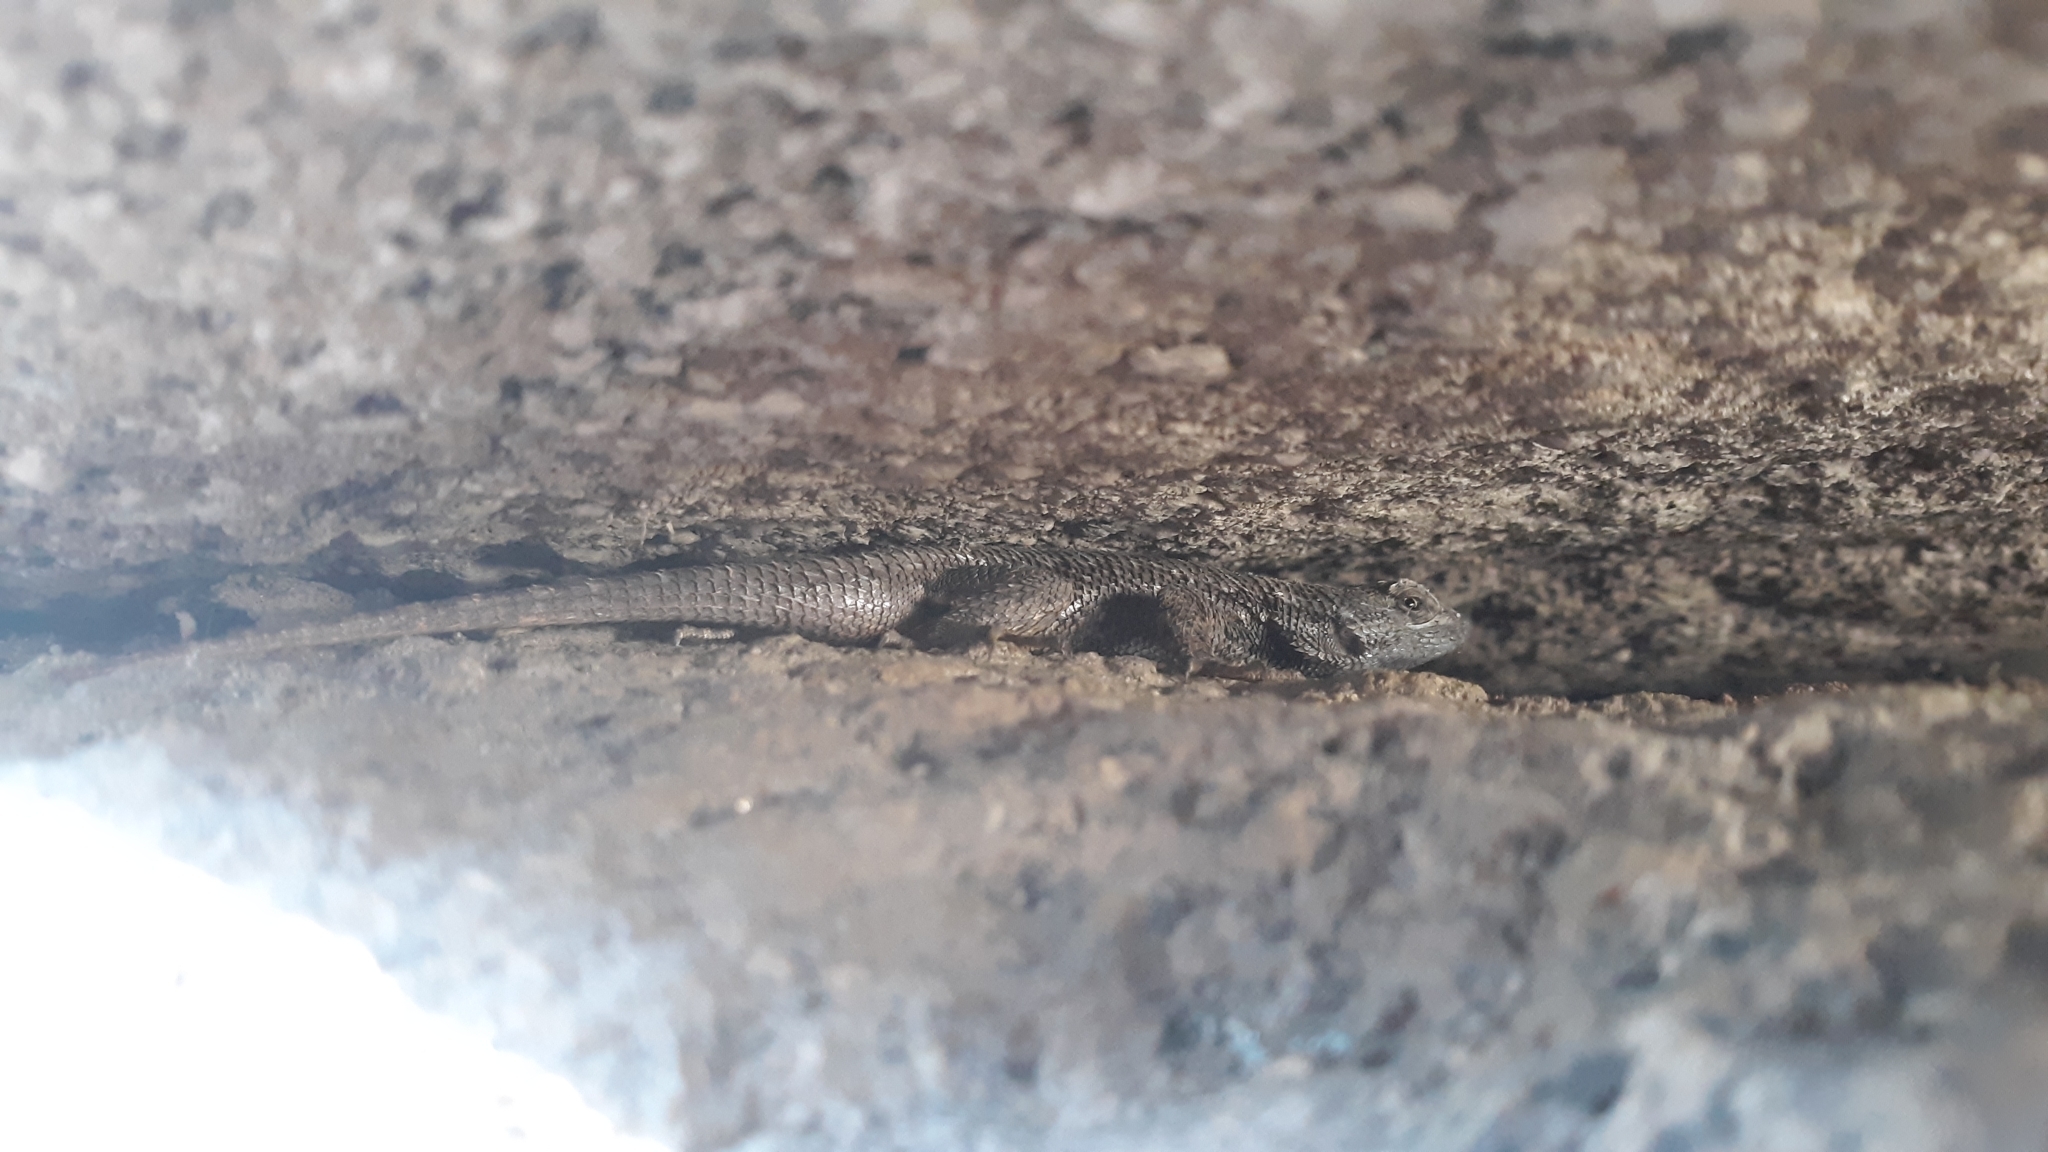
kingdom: Animalia
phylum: Chordata
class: Squamata
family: Phrynosomatidae
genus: Sceloporus
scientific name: Sceloporus occidentalis
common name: Western fence lizard
